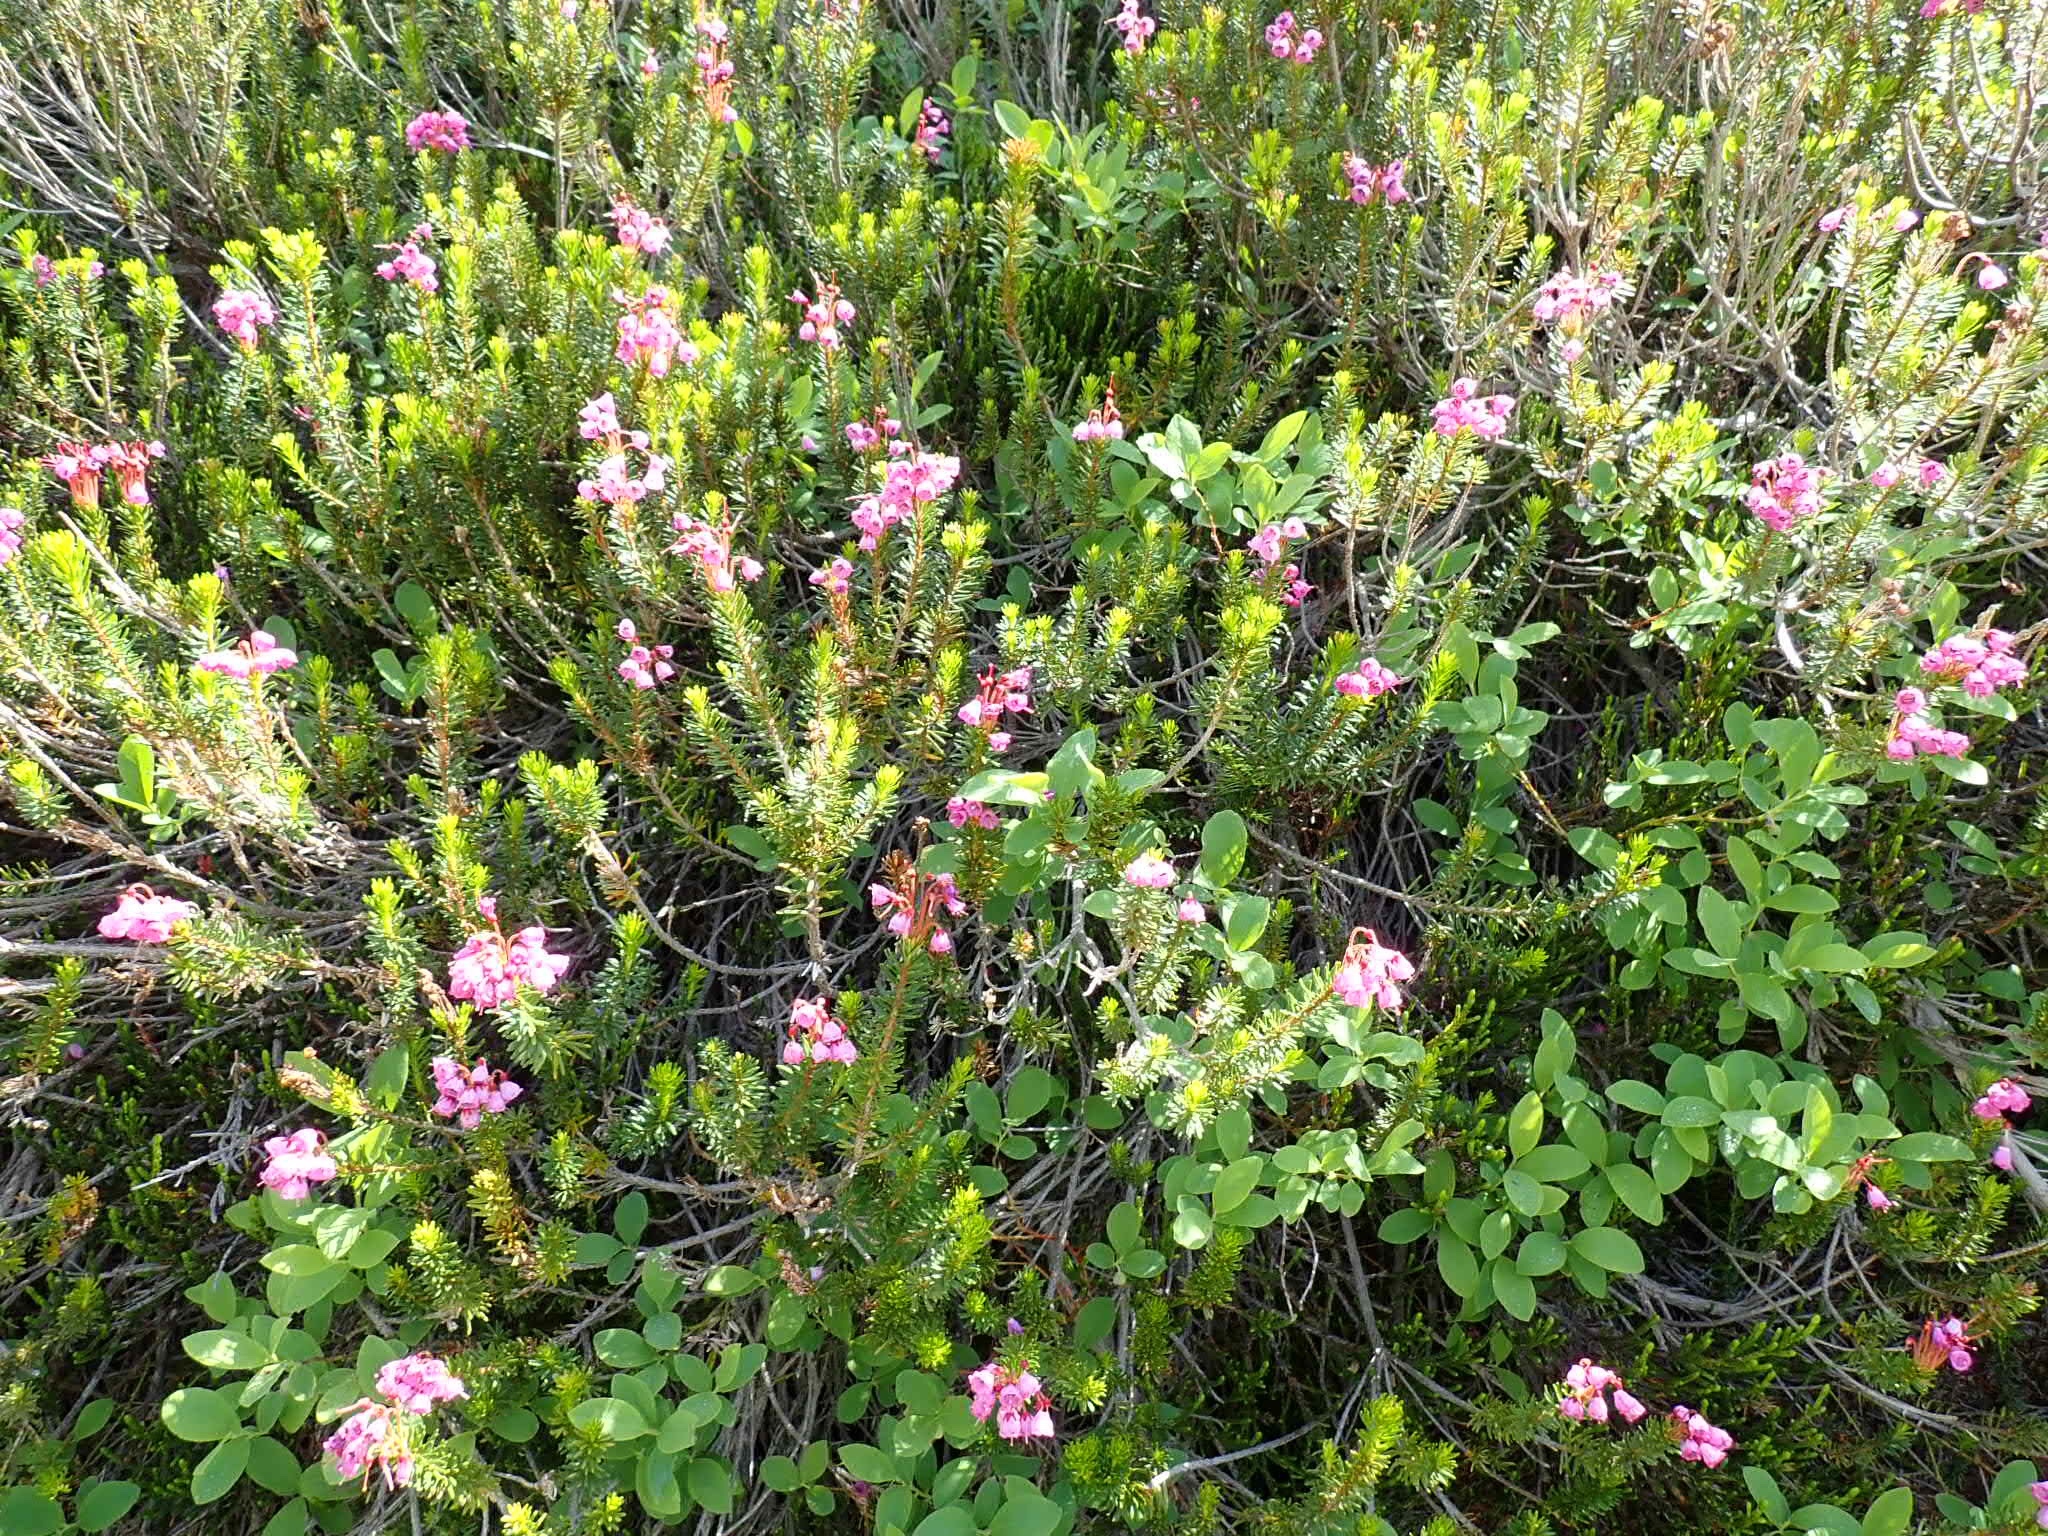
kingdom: Plantae
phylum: Tracheophyta
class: Magnoliopsida
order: Ericales
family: Ericaceae
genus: Phyllodoce
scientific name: Phyllodoce empetriformis
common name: Pink mountain heather
